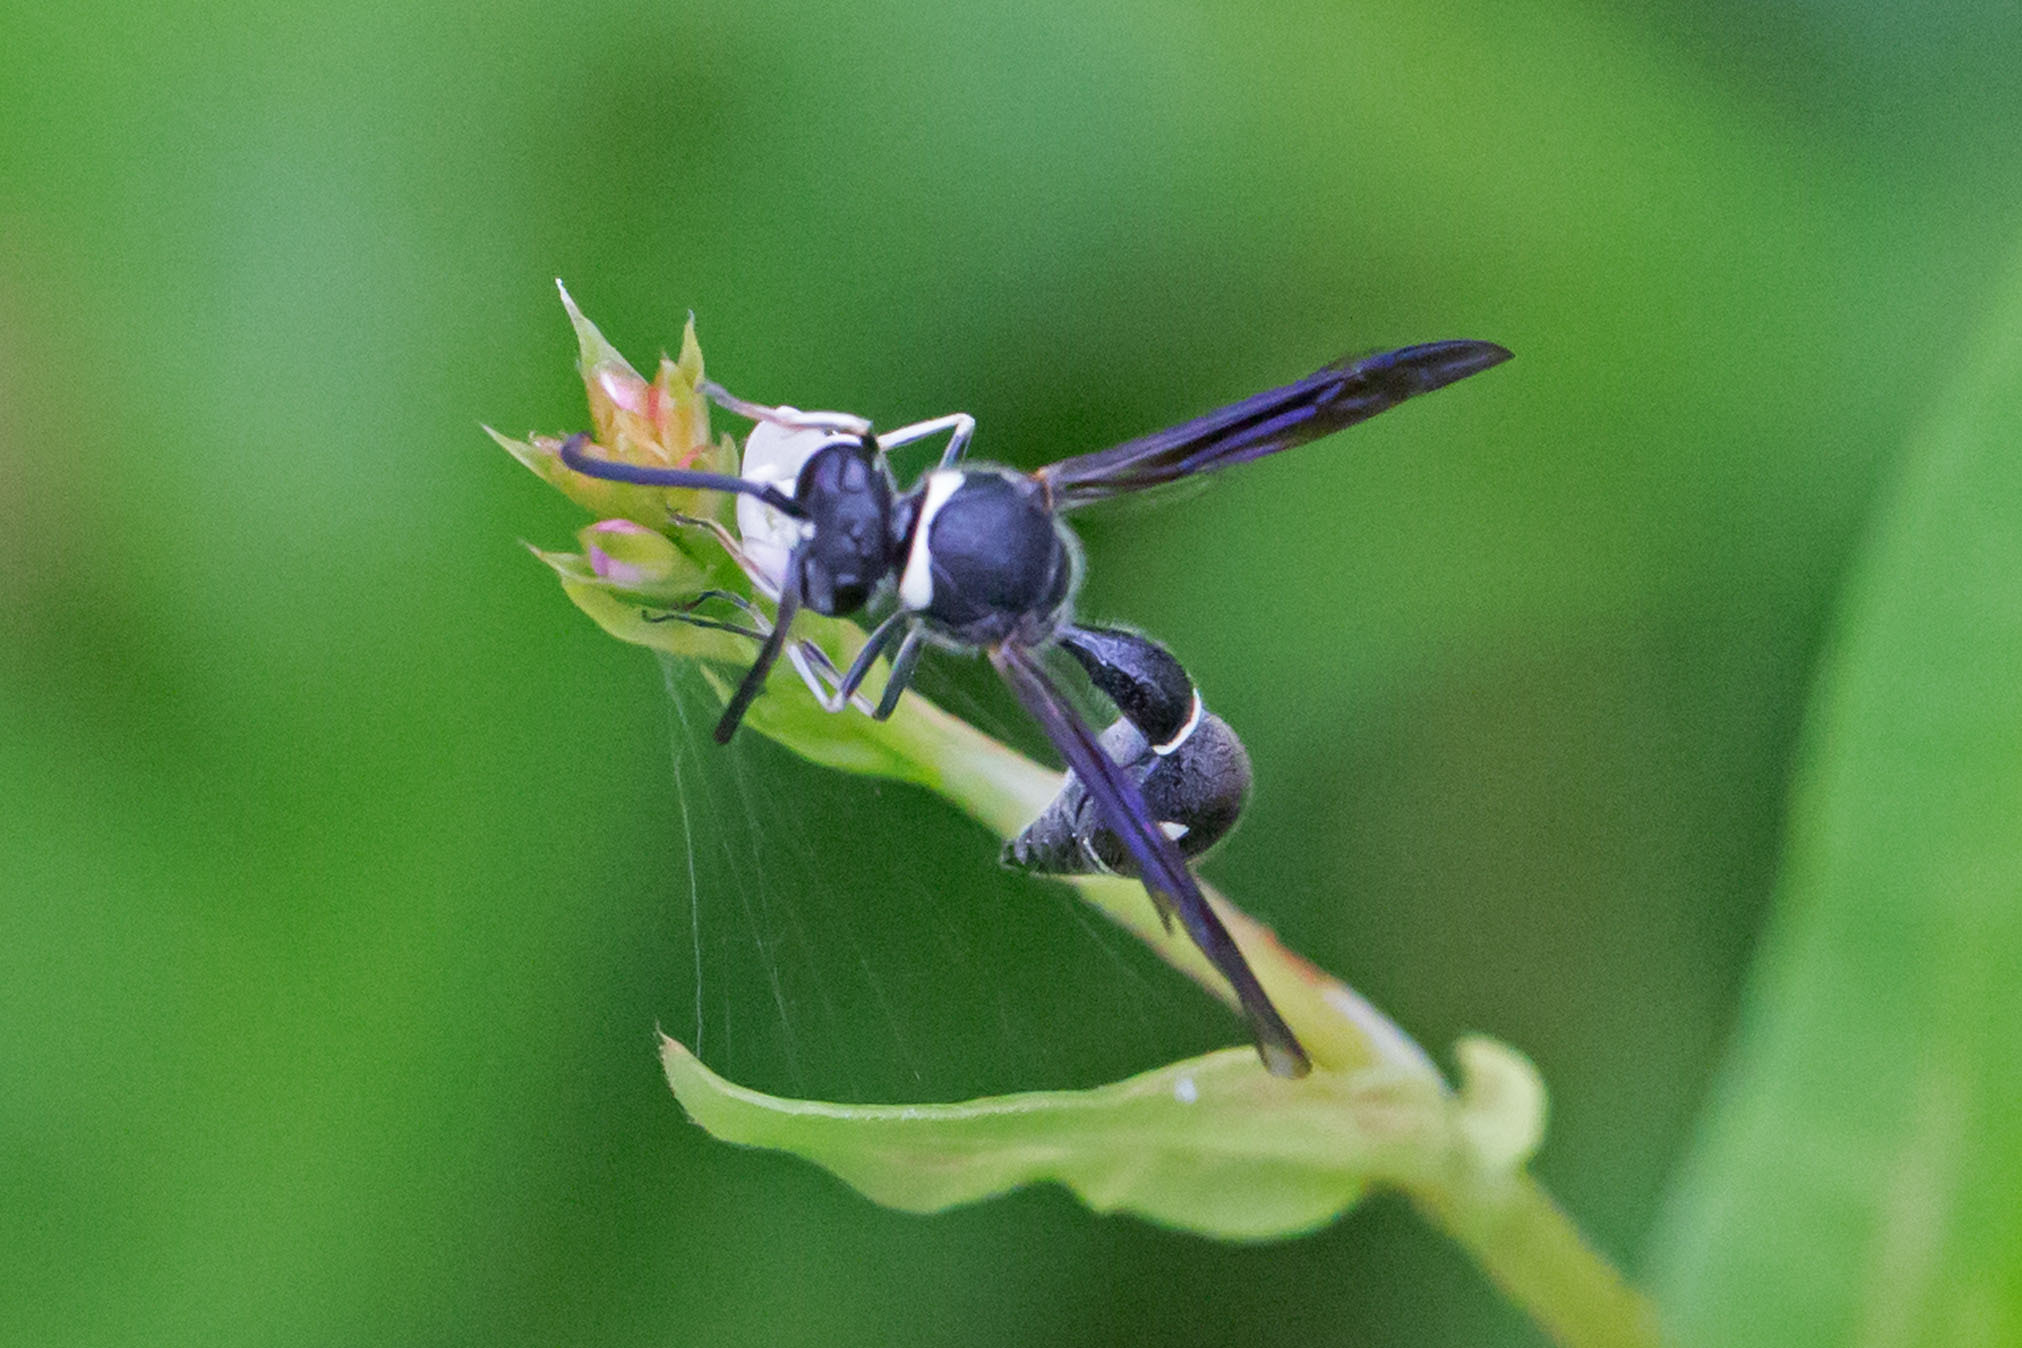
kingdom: Animalia
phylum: Arthropoda
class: Insecta
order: Hymenoptera
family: Vespidae
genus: Eumenes
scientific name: Eumenes fraternus
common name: Fraternal potter wasp
